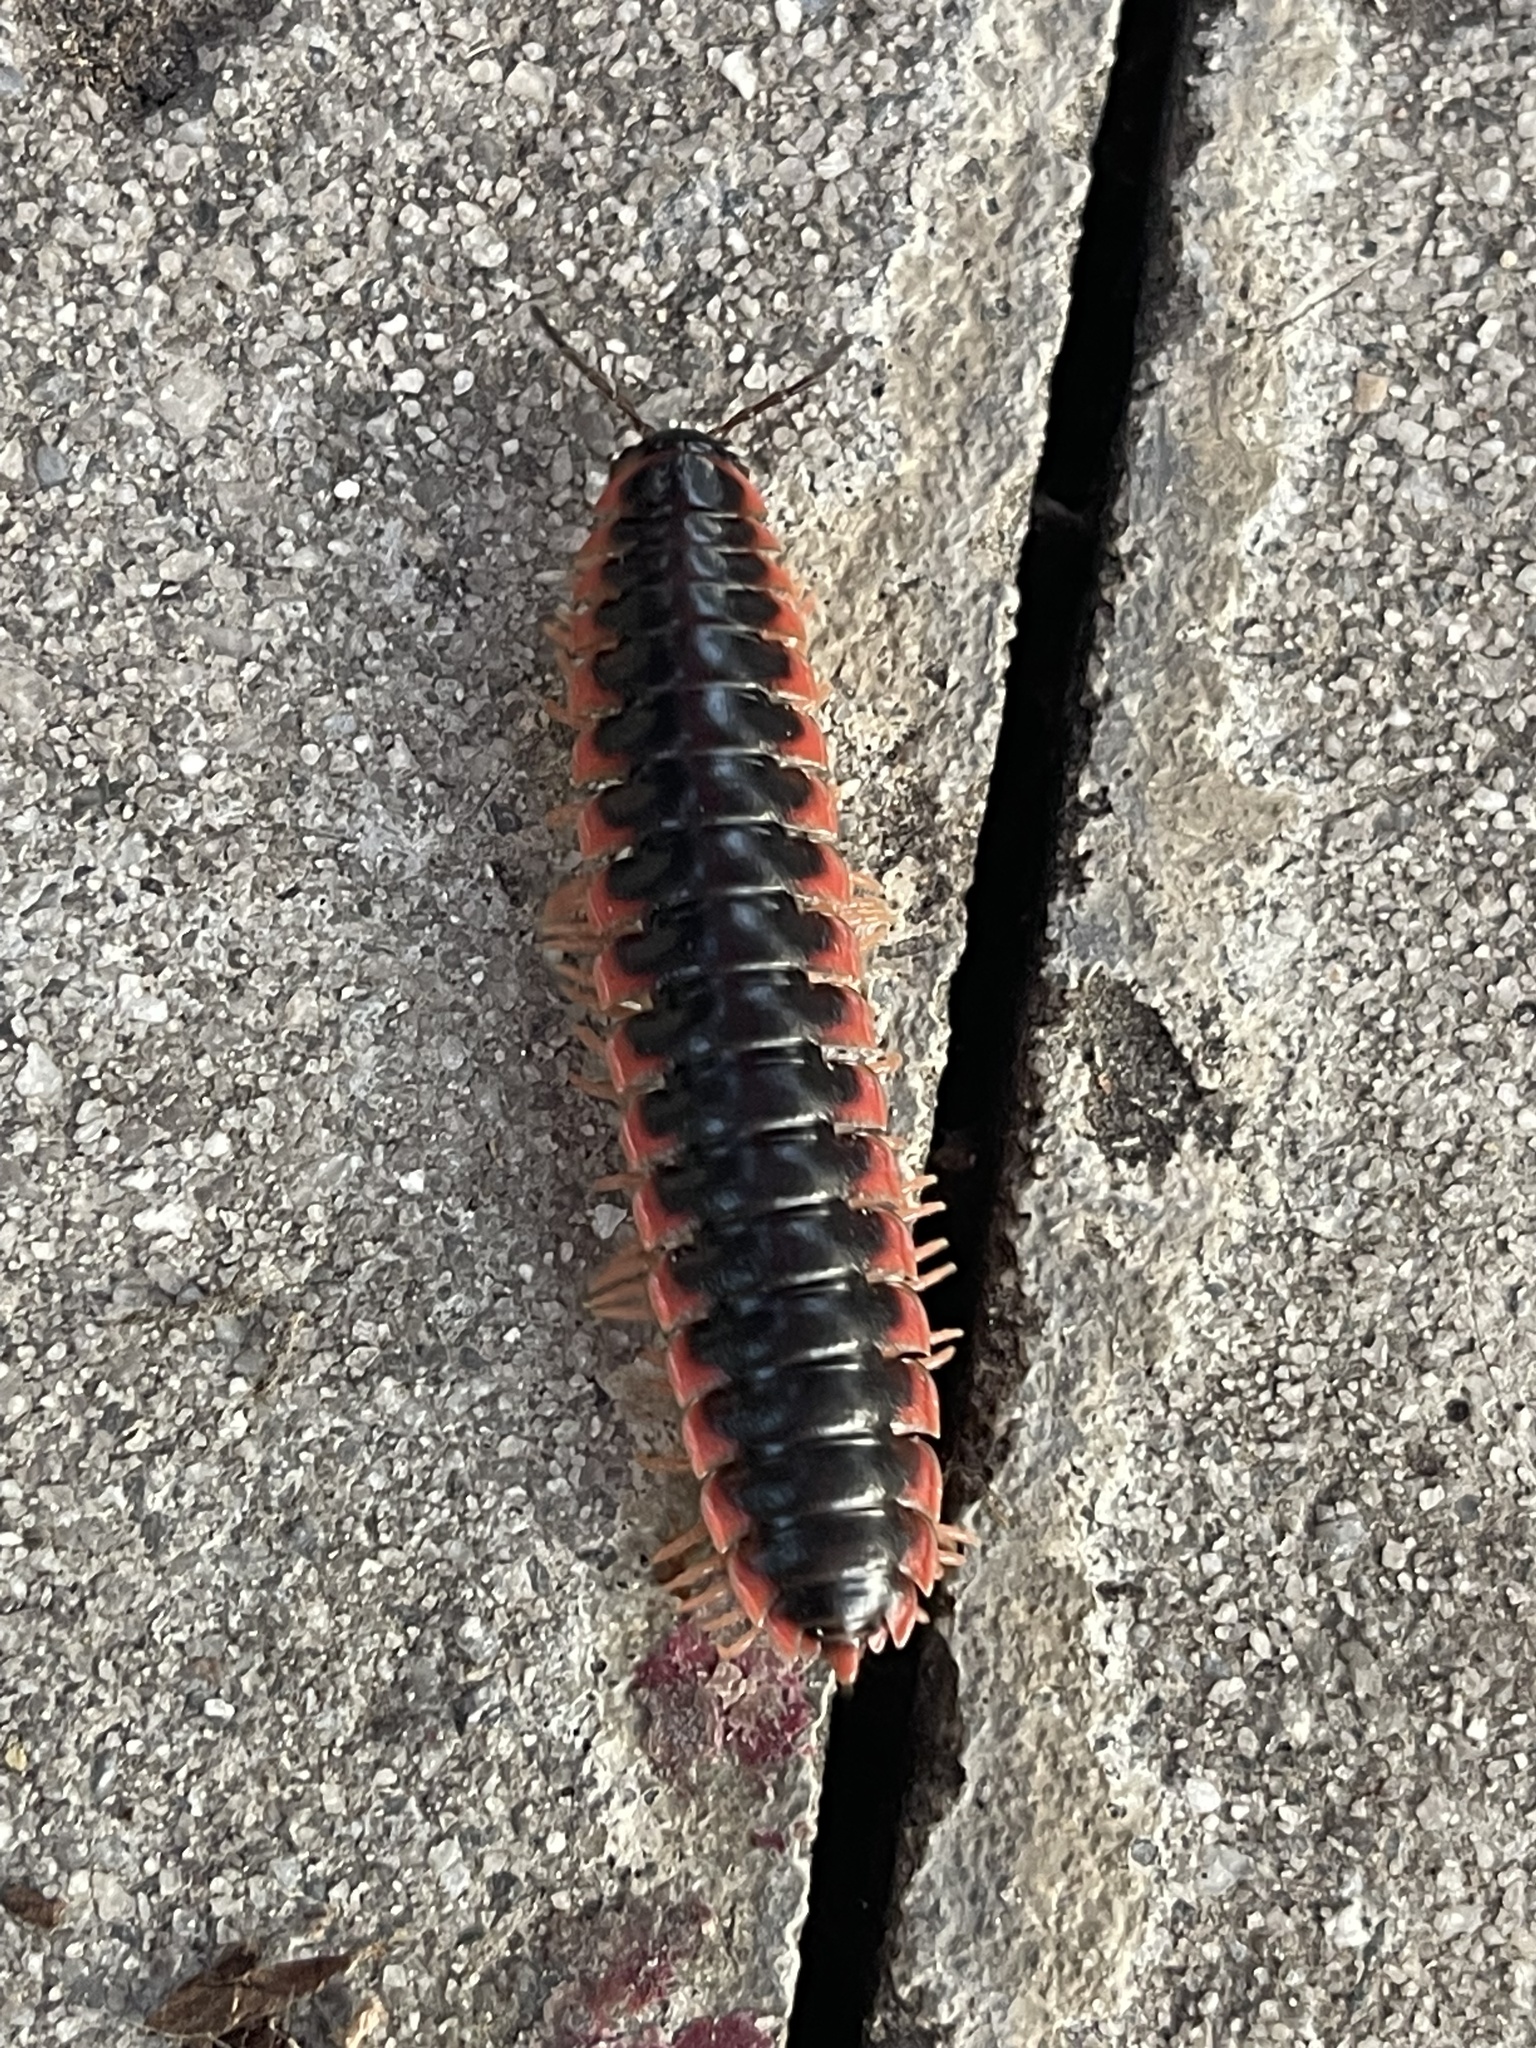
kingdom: Animalia
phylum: Arthropoda
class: Diplopoda
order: Polydesmida
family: Xystodesmidae
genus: Cherokia
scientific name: Cherokia georgiana
